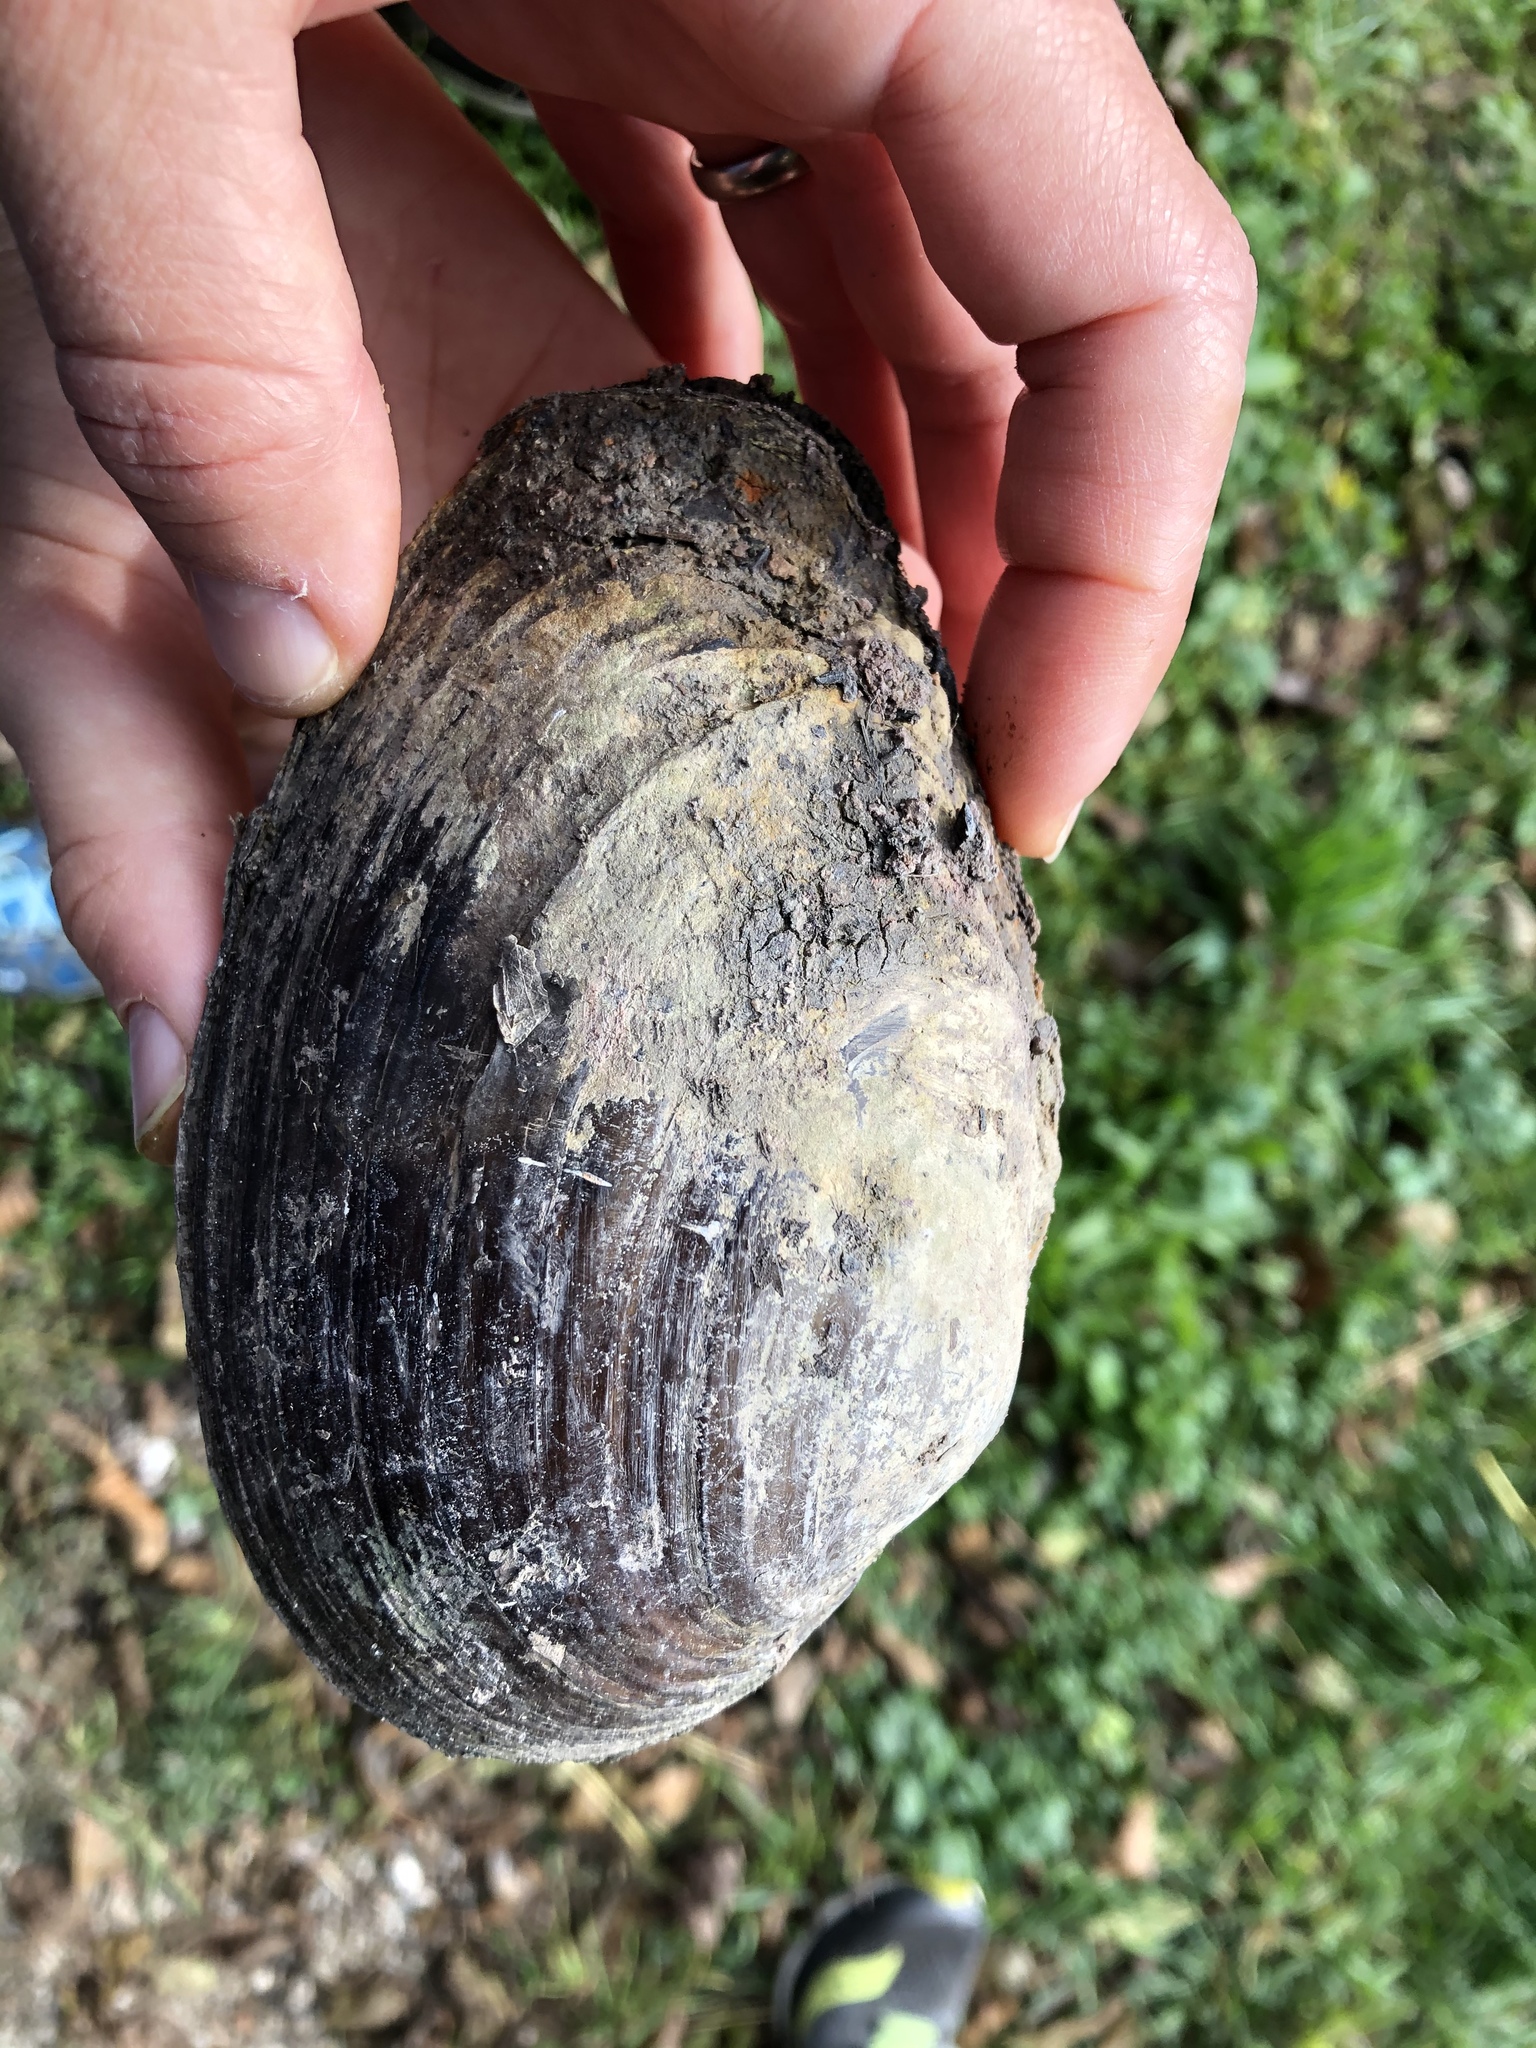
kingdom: Animalia
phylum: Mollusca
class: Bivalvia
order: Unionida
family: Unionidae
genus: Anodonta
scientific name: Anodonta anatina
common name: Duck mussel
